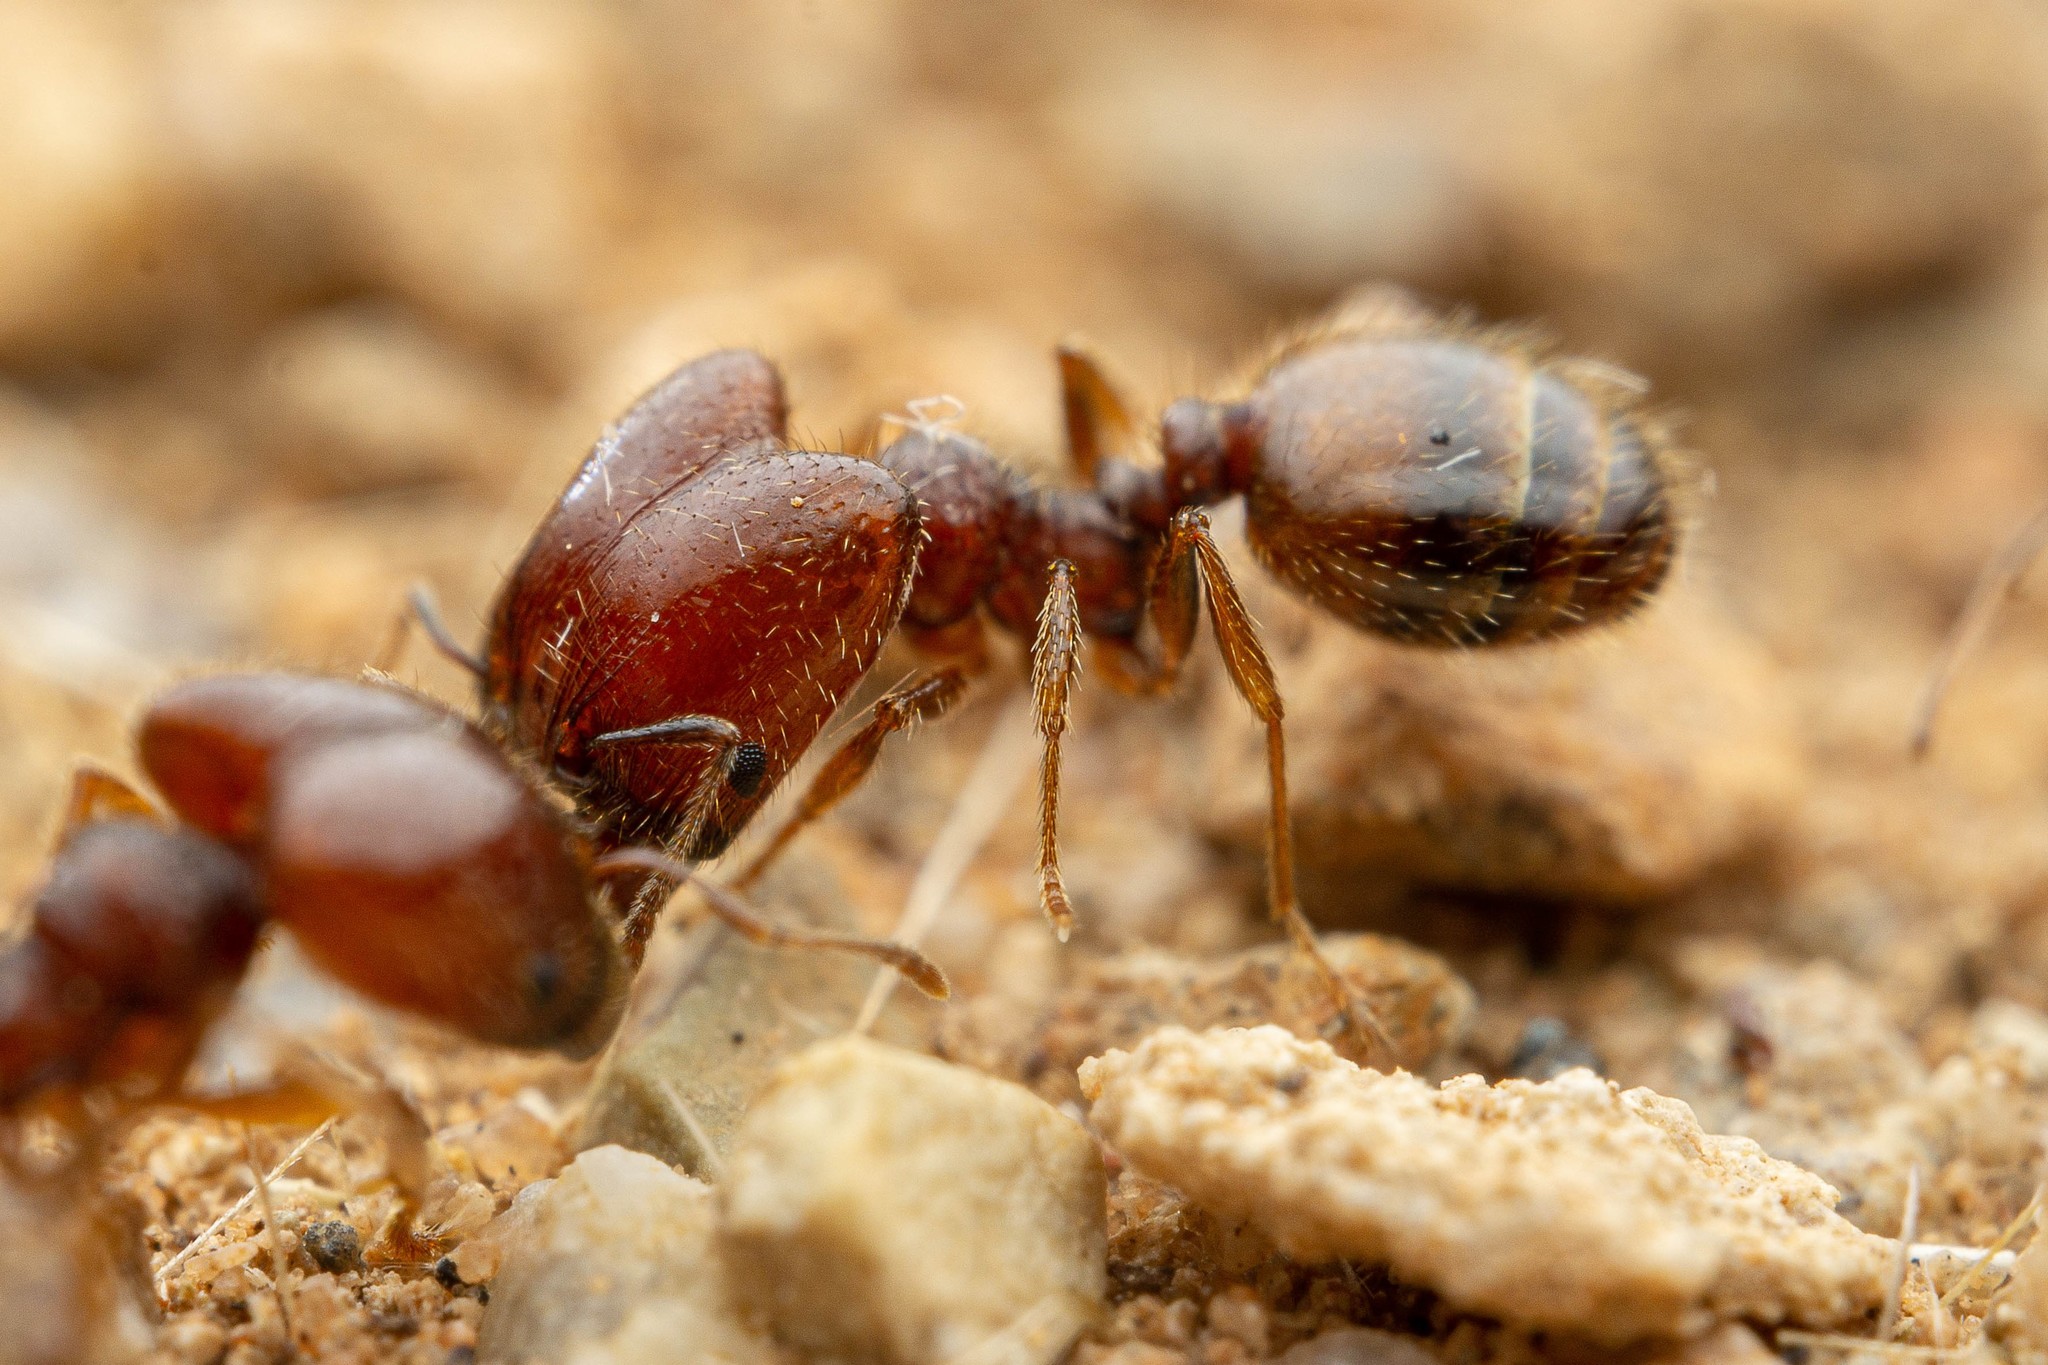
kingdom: Animalia
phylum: Arthropoda
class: Insecta
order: Hymenoptera
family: Formicidae
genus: Pheidole
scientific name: Pheidole xerophila
